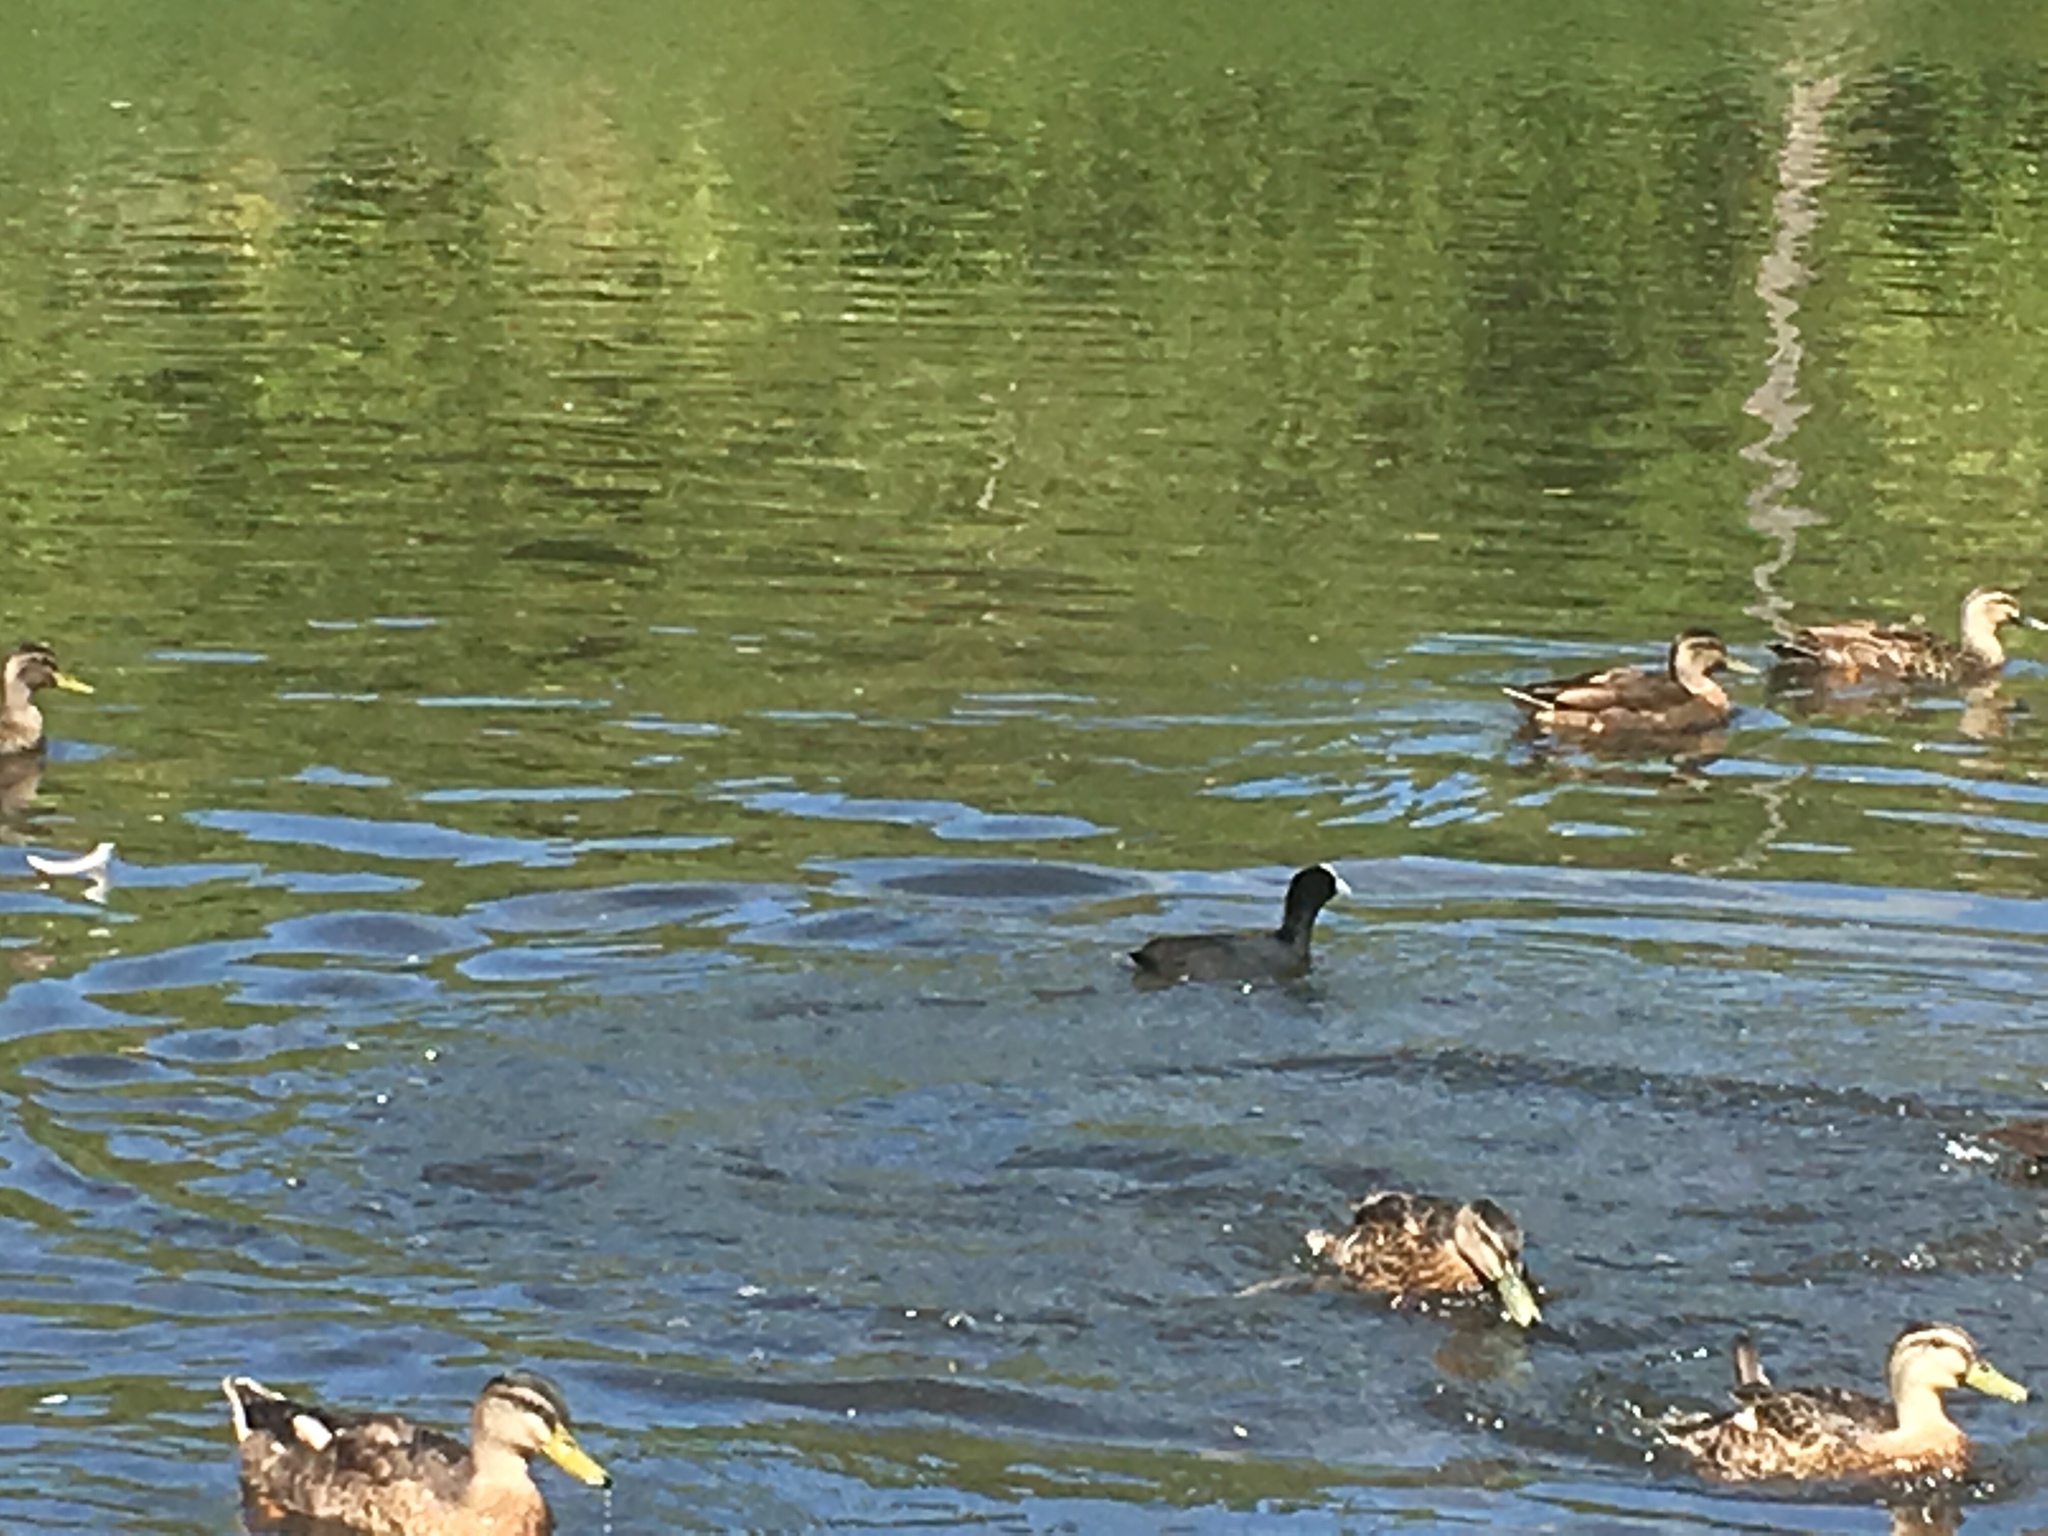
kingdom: Animalia
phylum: Chordata
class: Aves
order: Gruiformes
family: Rallidae
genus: Fulica
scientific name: Fulica atra
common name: Eurasian coot
